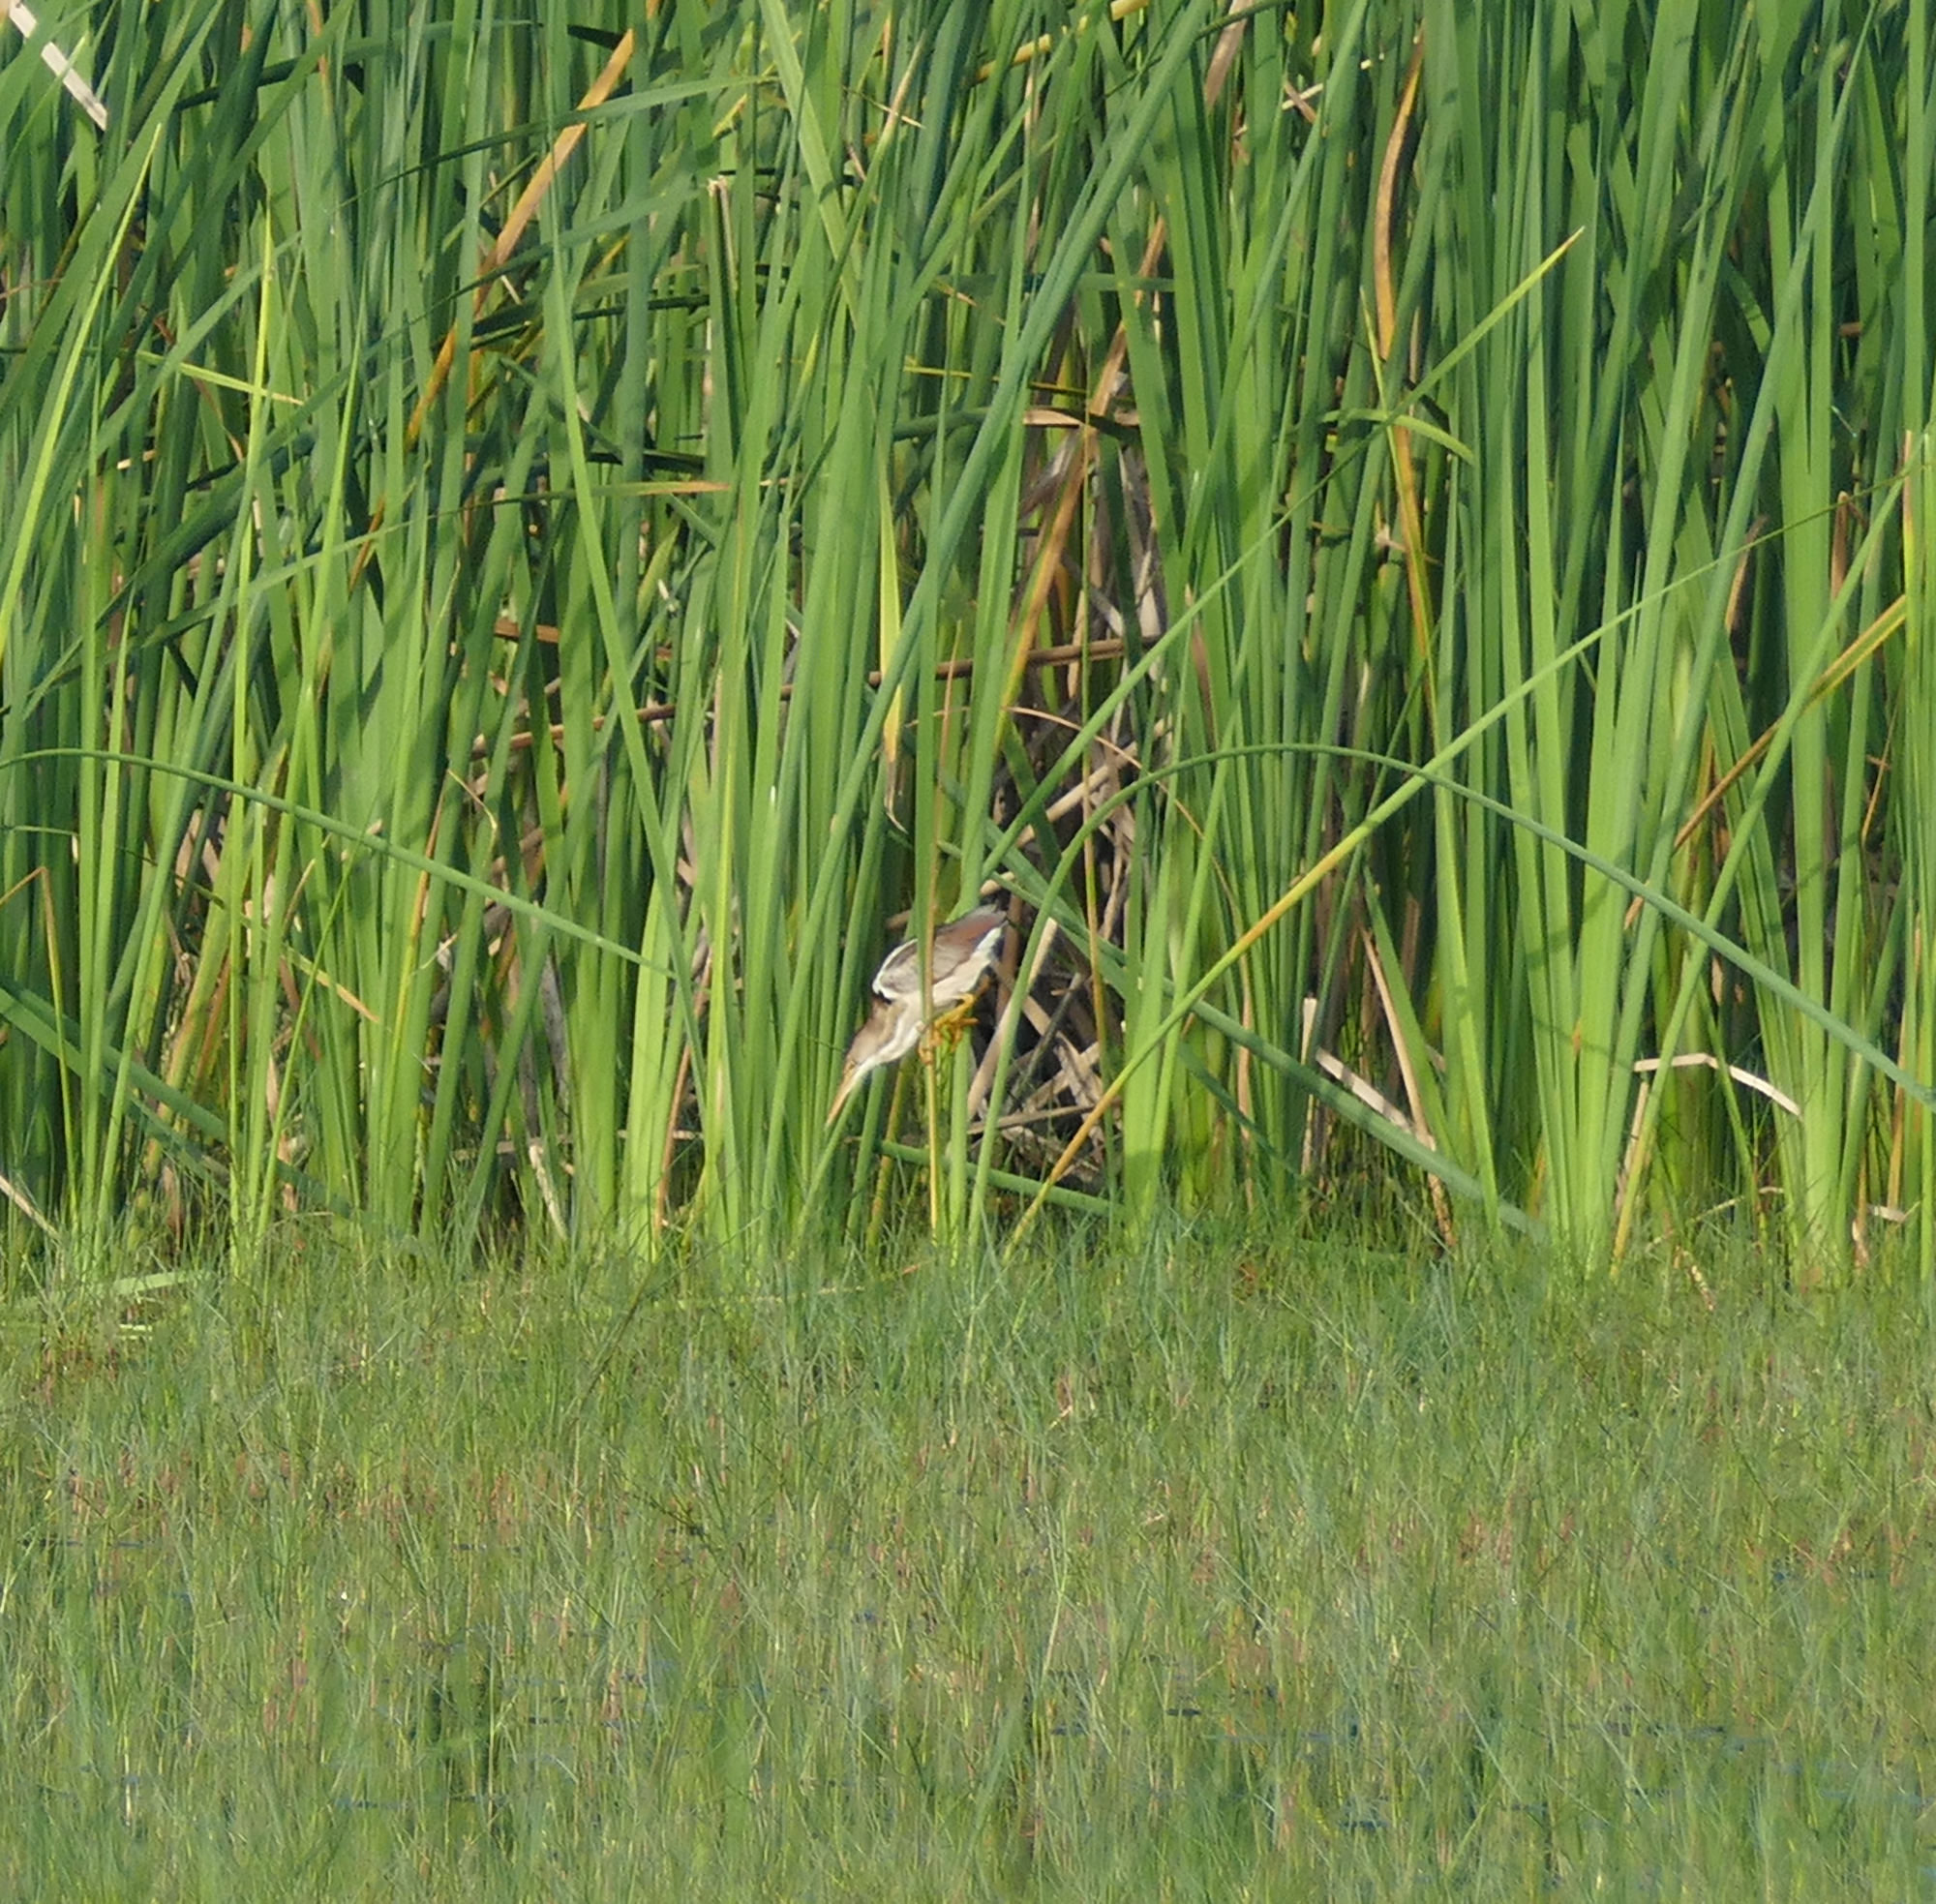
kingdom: Animalia
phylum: Chordata
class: Aves
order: Pelecaniformes
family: Ardeidae
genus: Ixobrychus
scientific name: Ixobrychus exilis
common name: Least bittern
